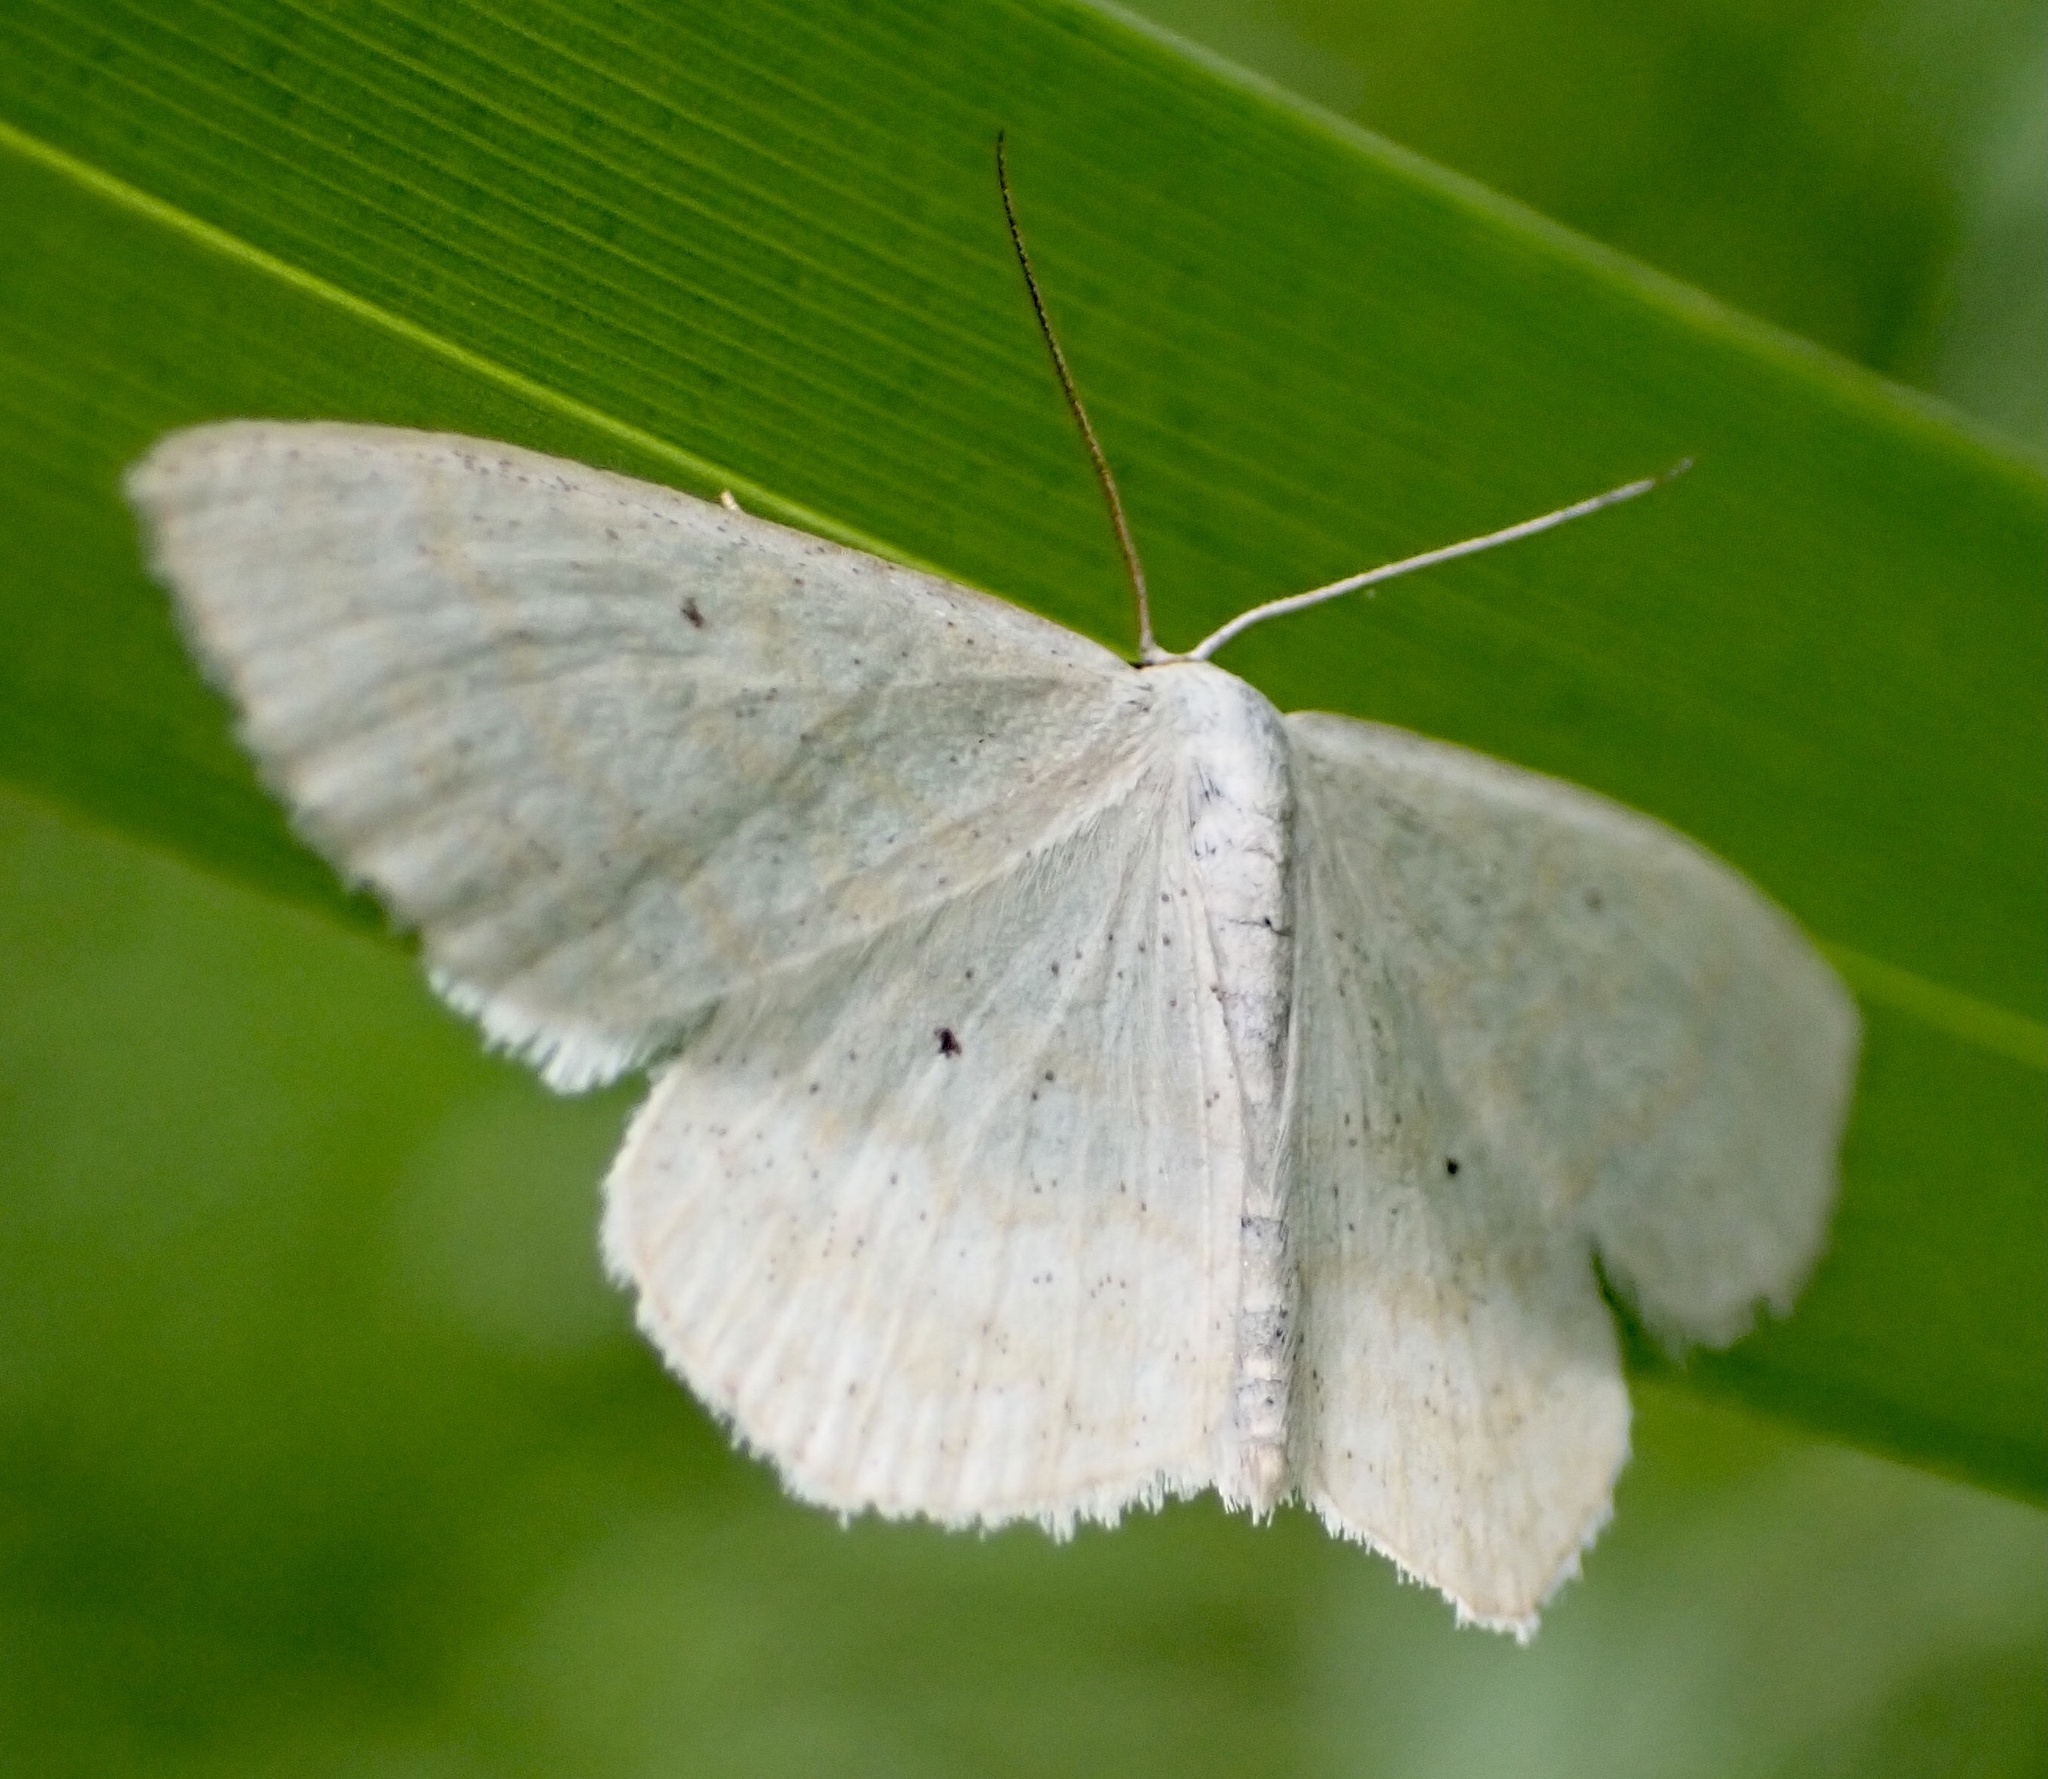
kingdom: Animalia
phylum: Arthropoda
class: Insecta
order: Lepidoptera
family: Geometridae
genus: Scopula
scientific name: Scopula immutata
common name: Lesser cream wave
